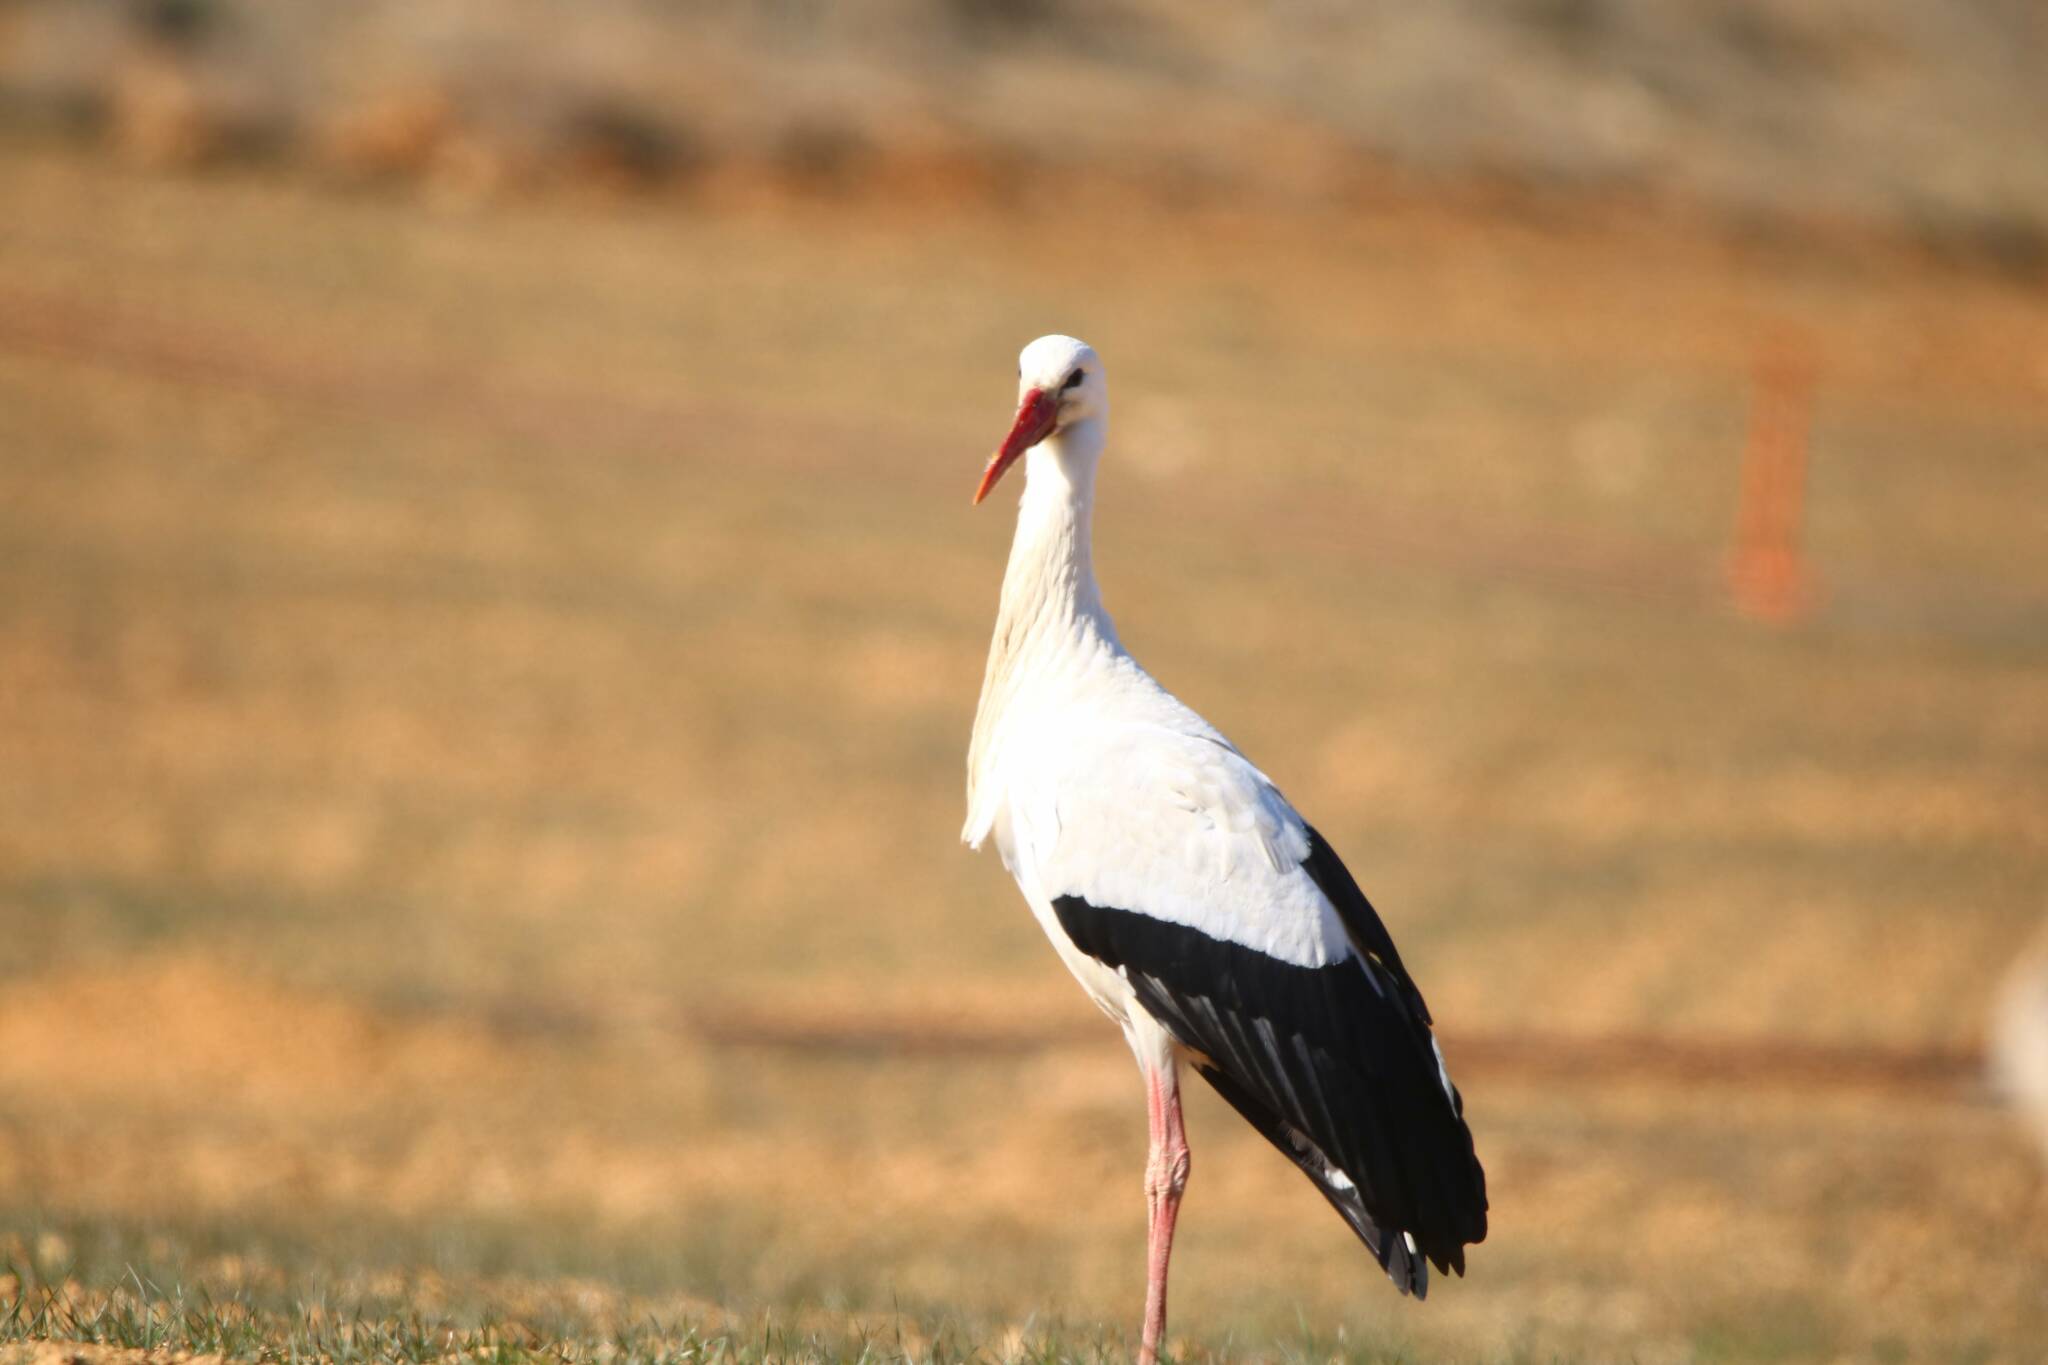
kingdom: Animalia
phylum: Chordata
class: Aves
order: Ciconiiformes
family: Ciconiidae
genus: Ciconia
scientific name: Ciconia ciconia
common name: White stork
